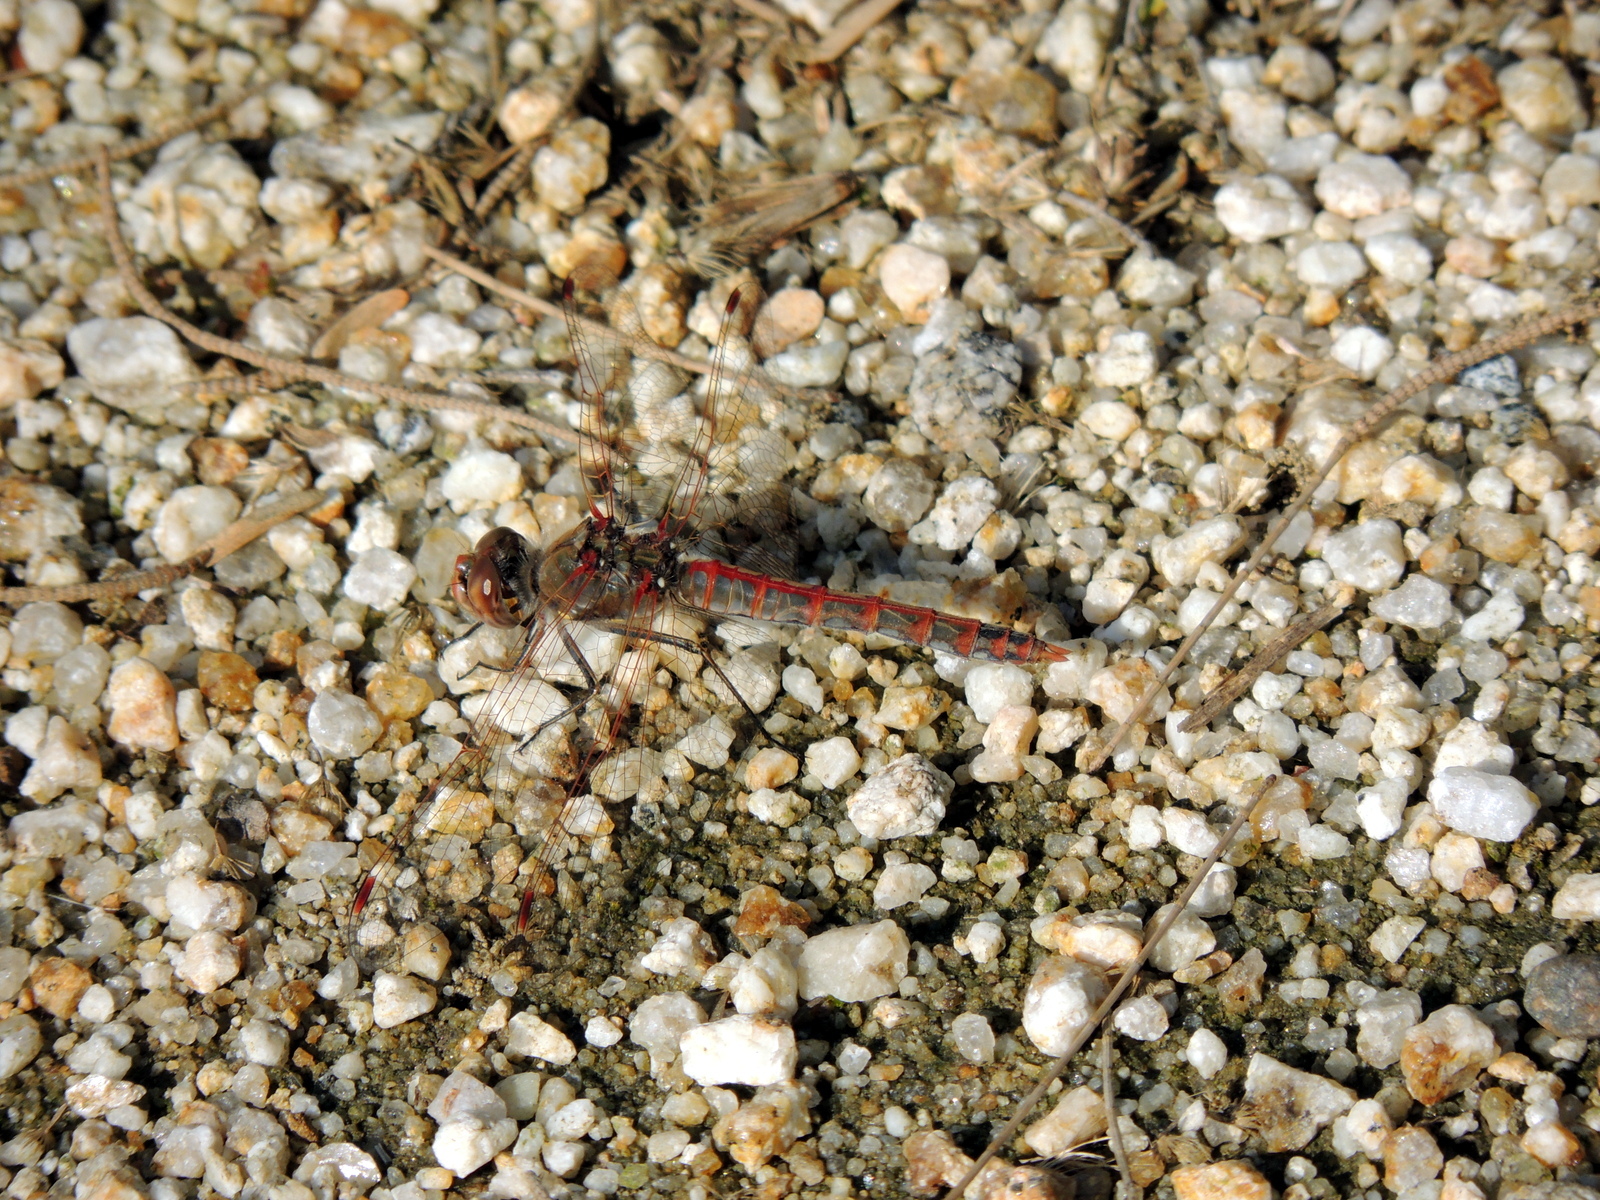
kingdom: Animalia
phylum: Arthropoda
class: Insecta
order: Odonata
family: Libellulidae
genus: Sympetrum
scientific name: Sympetrum corruptum
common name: Variegated meadowhawk
